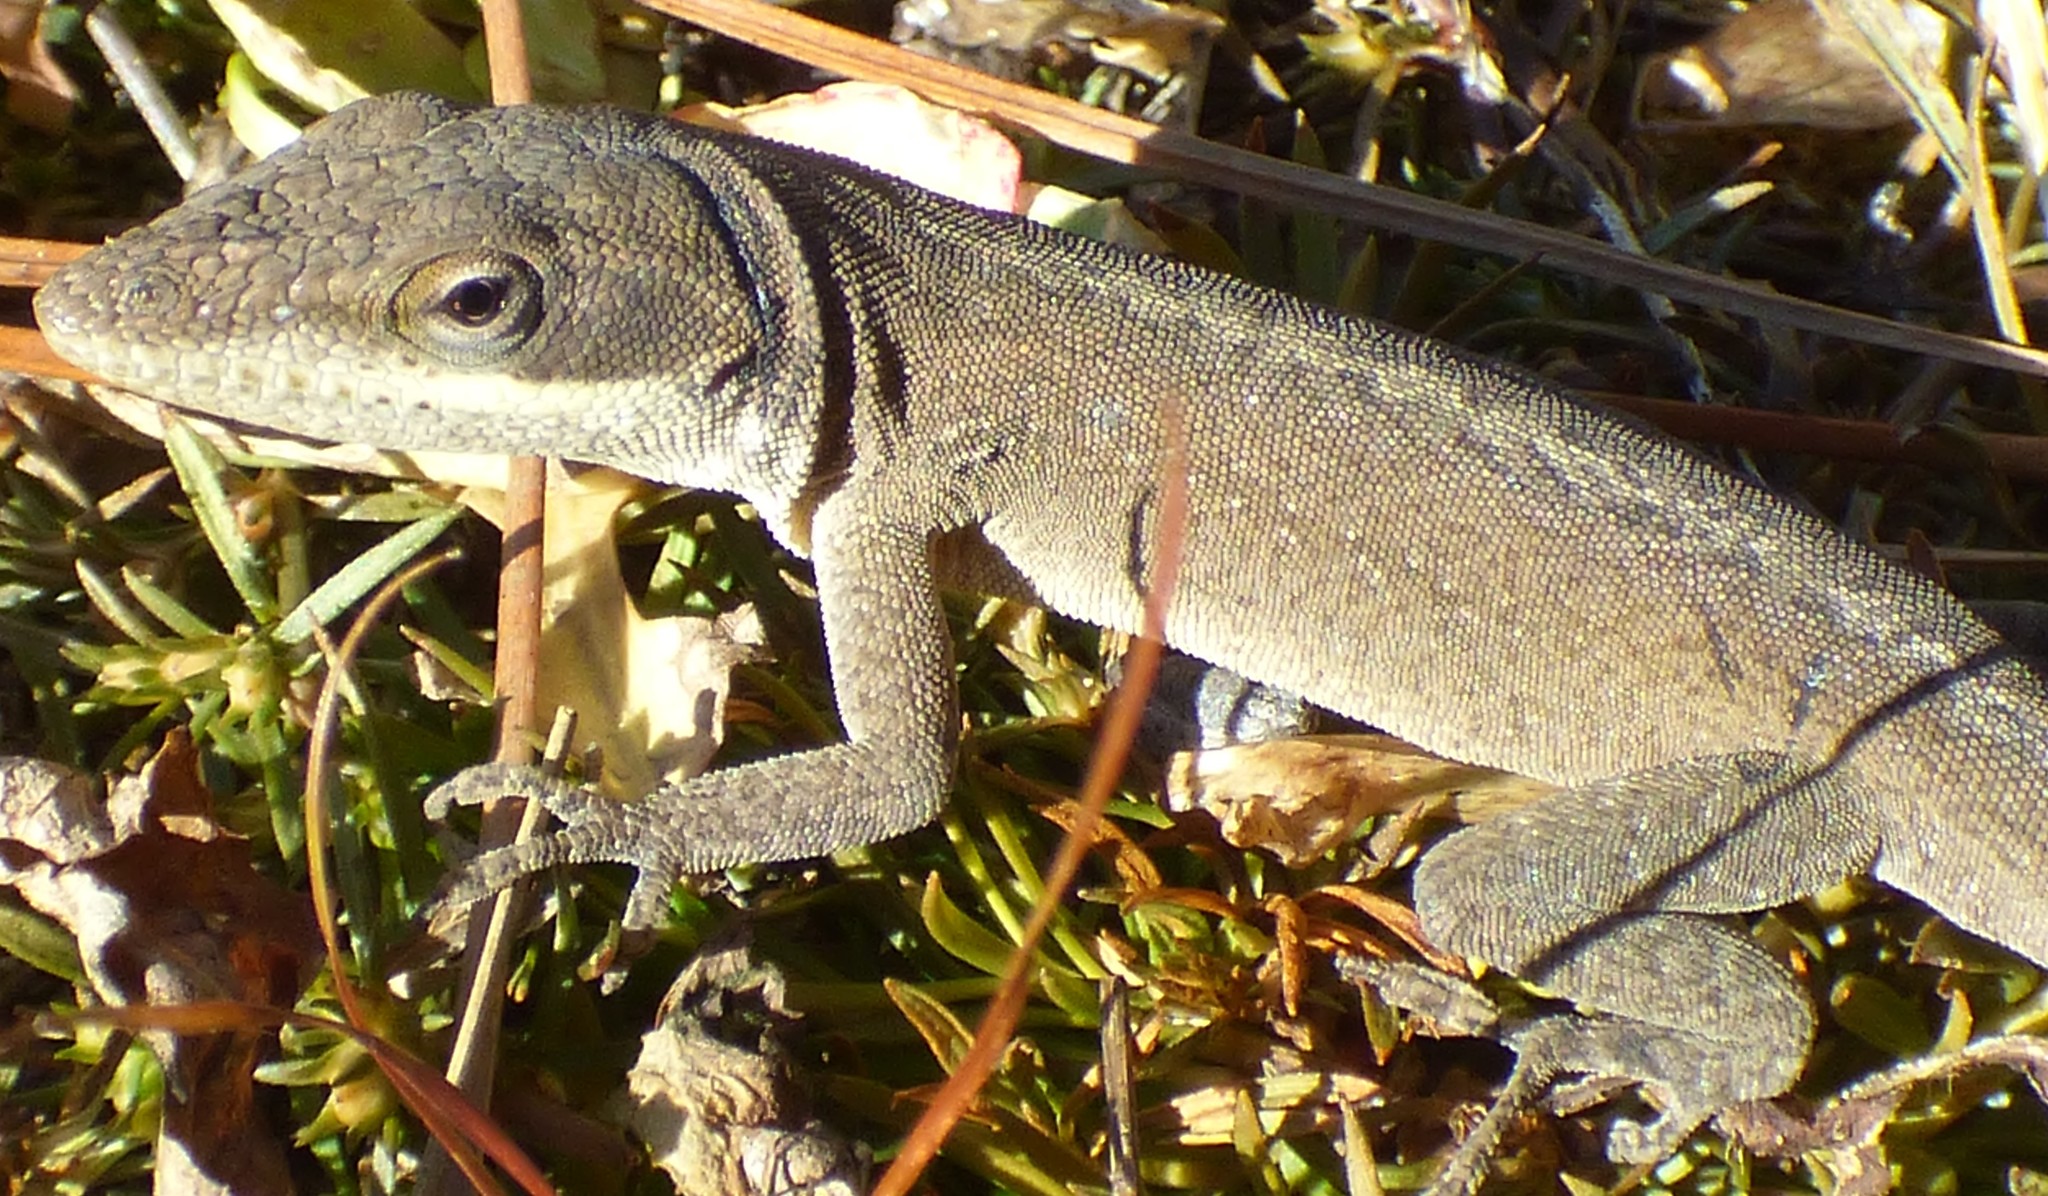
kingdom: Animalia
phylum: Chordata
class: Squamata
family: Dactyloidae
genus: Anolis
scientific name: Anolis carolinensis
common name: Green anole
